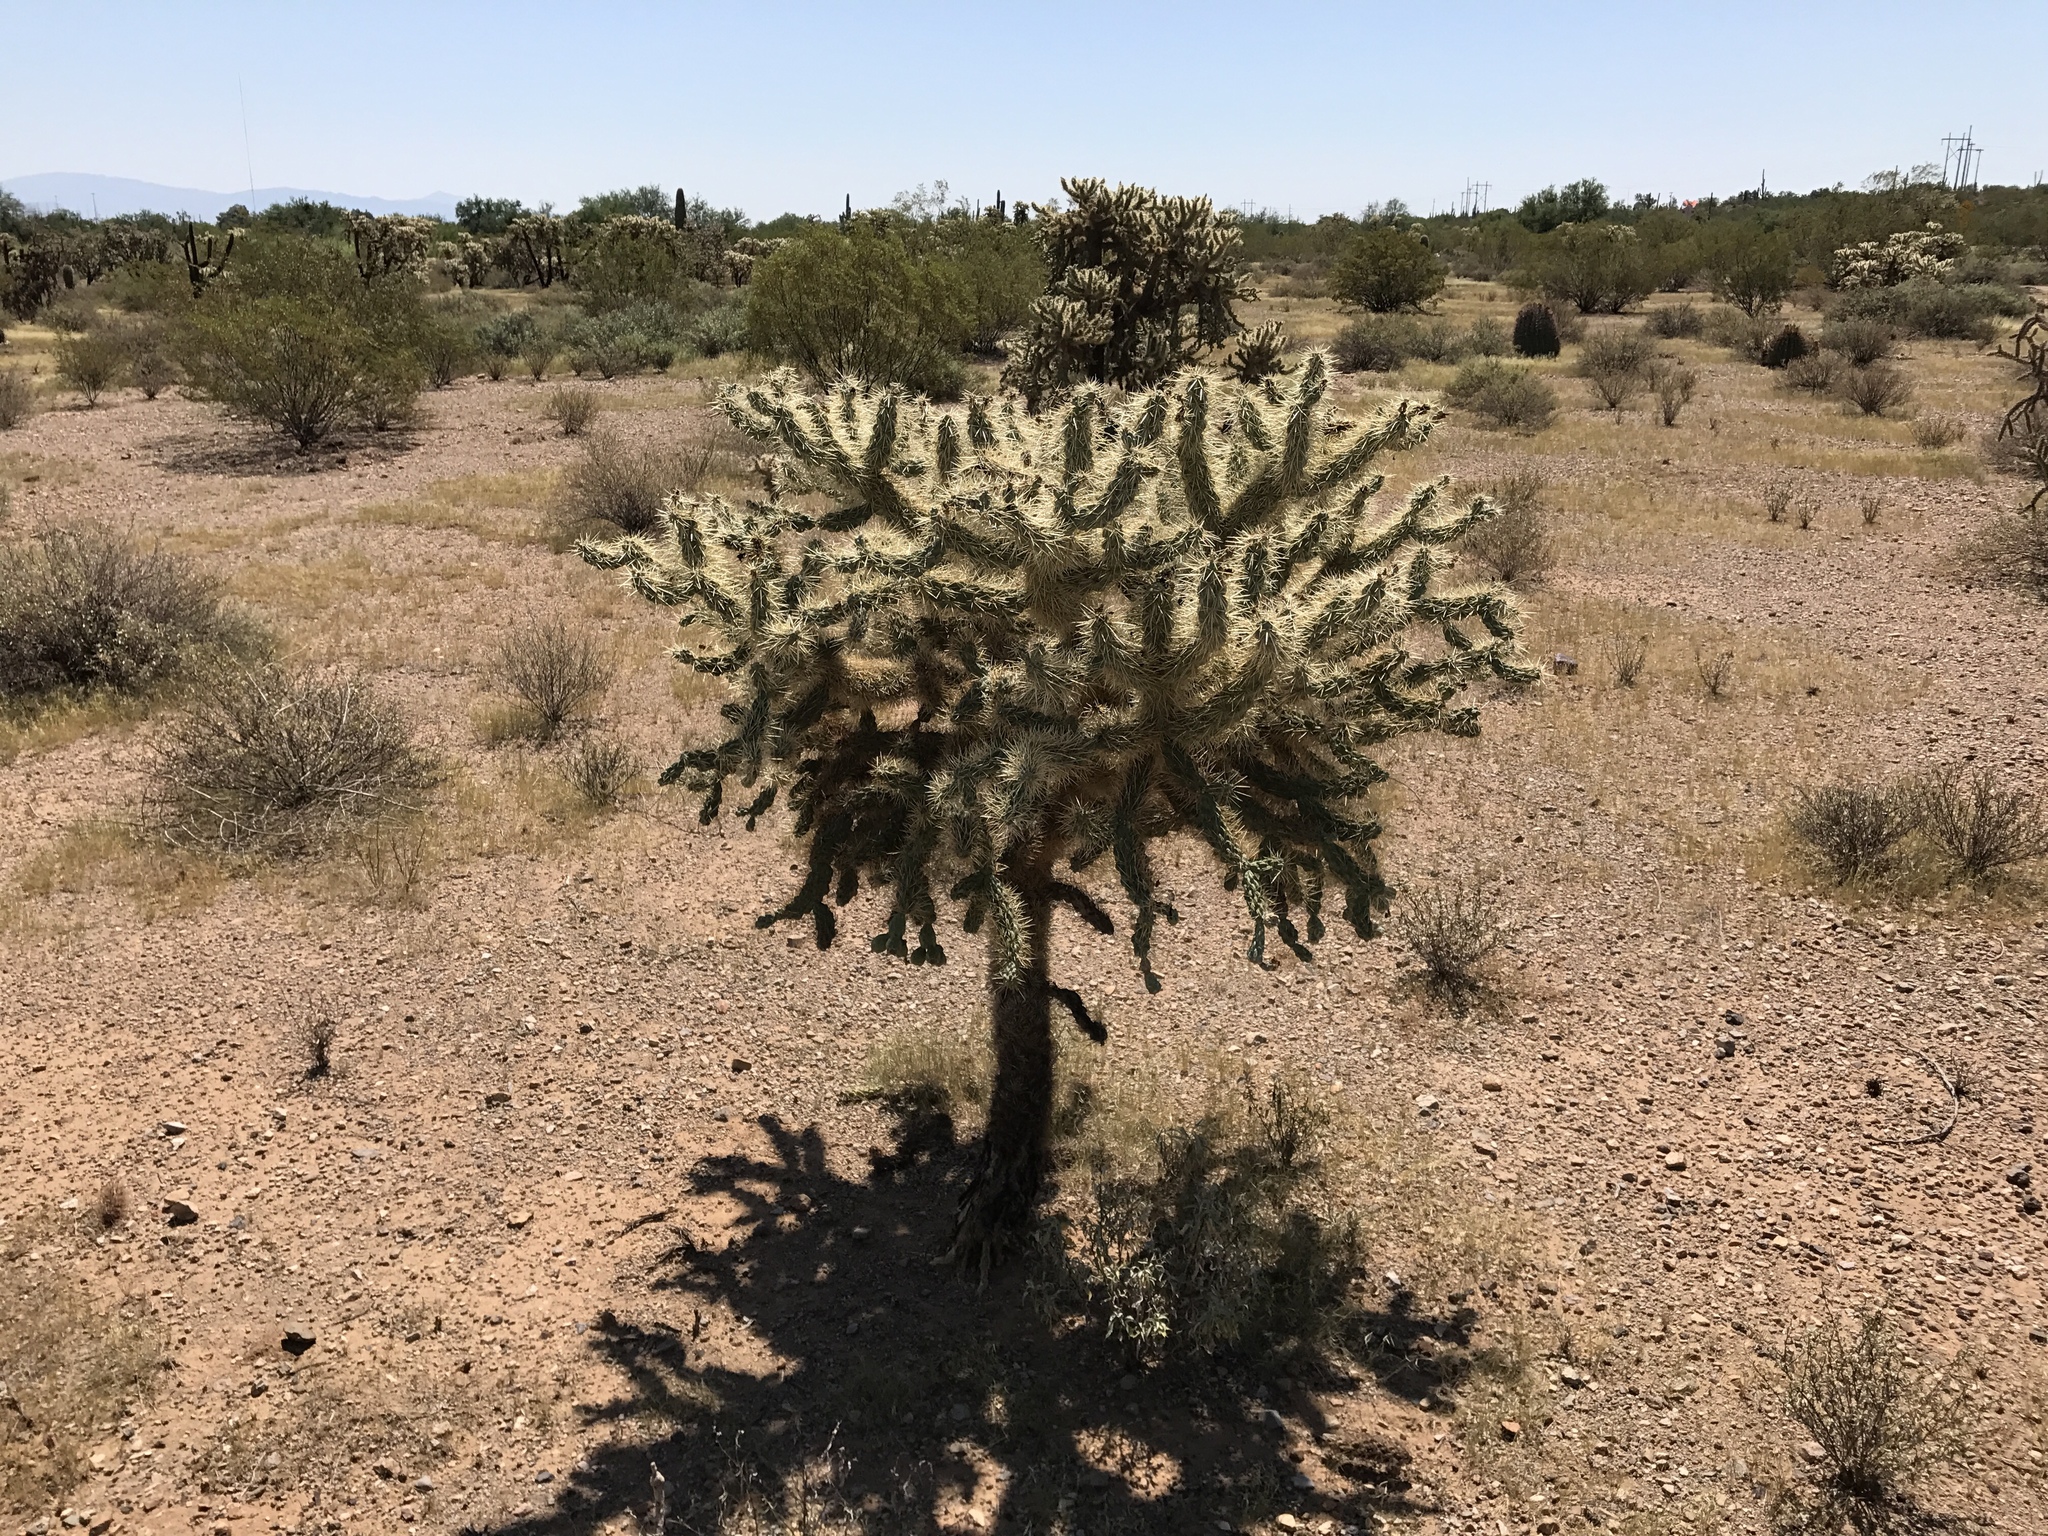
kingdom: Plantae
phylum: Tracheophyta
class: Magnoliopsida
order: Caryophyllales
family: Cactaceae
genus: Cylindropuntia
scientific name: Cylindropuntia fulgida
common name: Jumping cholla
